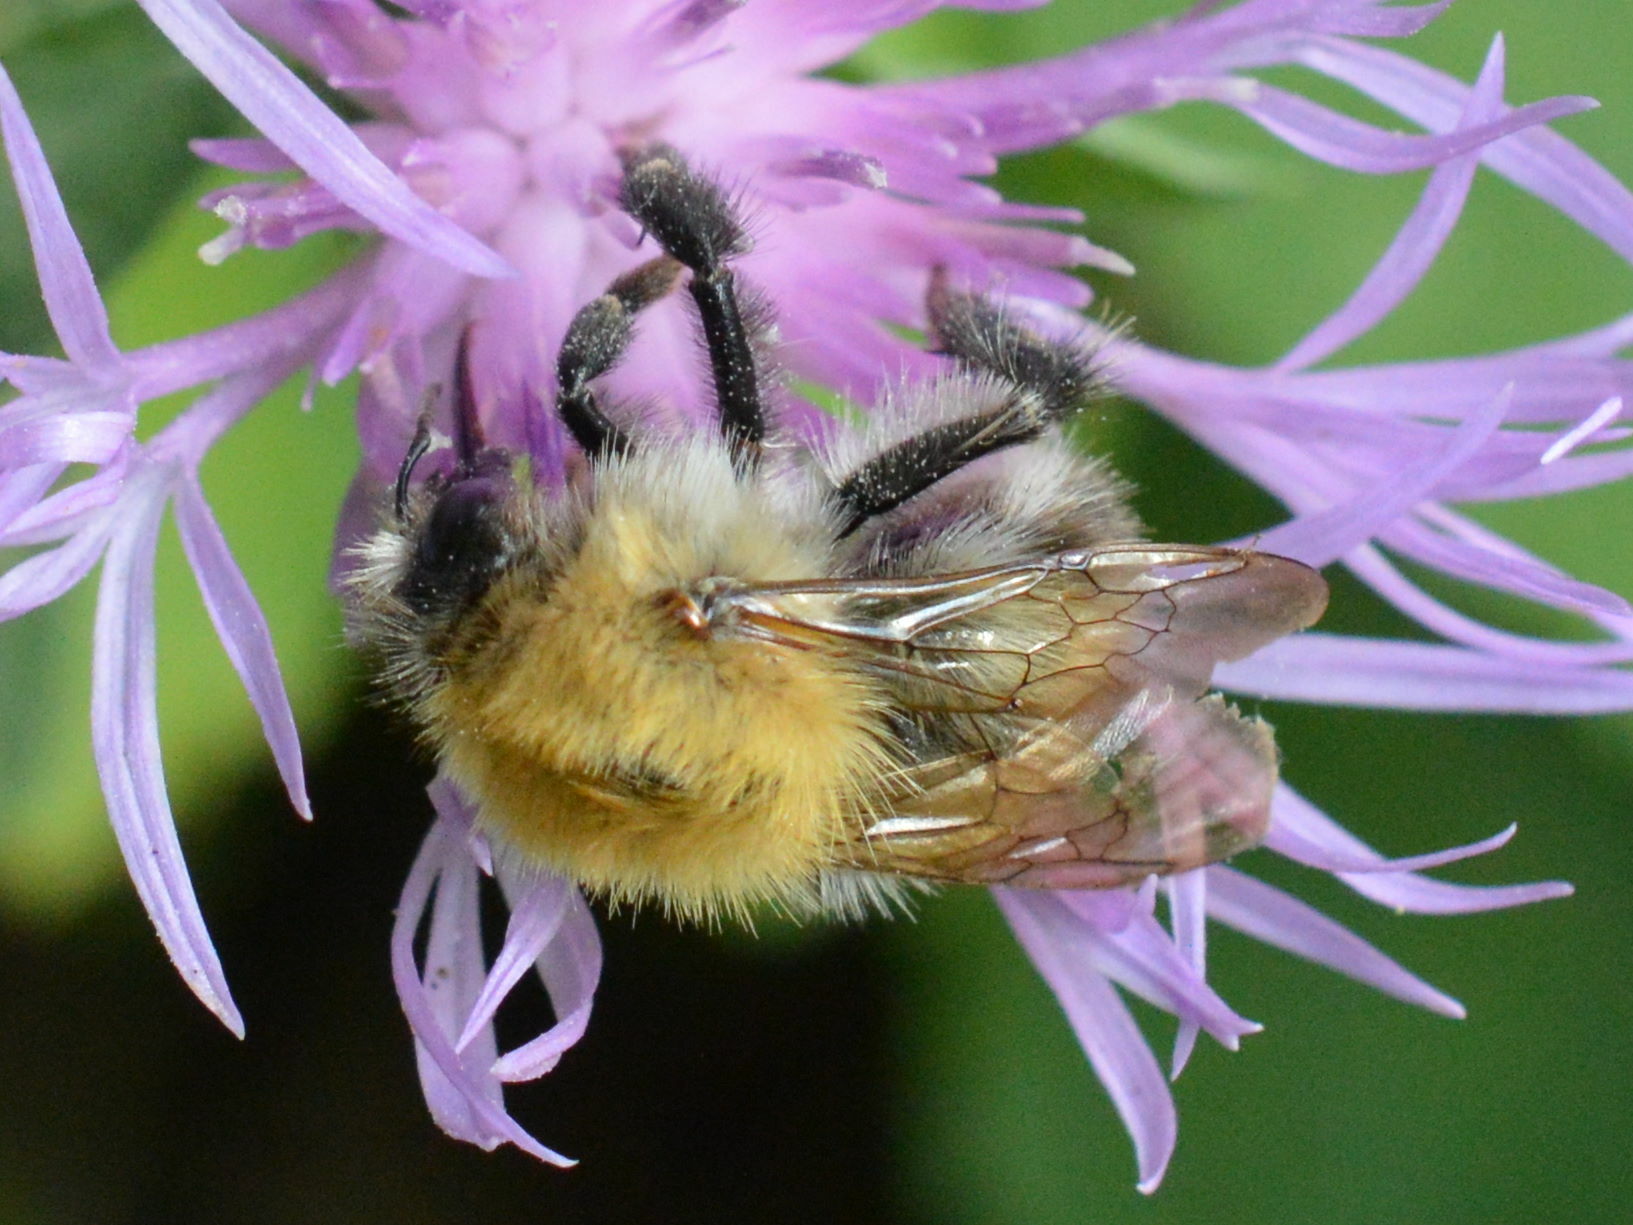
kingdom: Animalia
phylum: Arthropoda
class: Insecta
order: Hymenoptera
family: Apidae
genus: Bombus
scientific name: Bombus pascuorum
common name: Common carder bee
